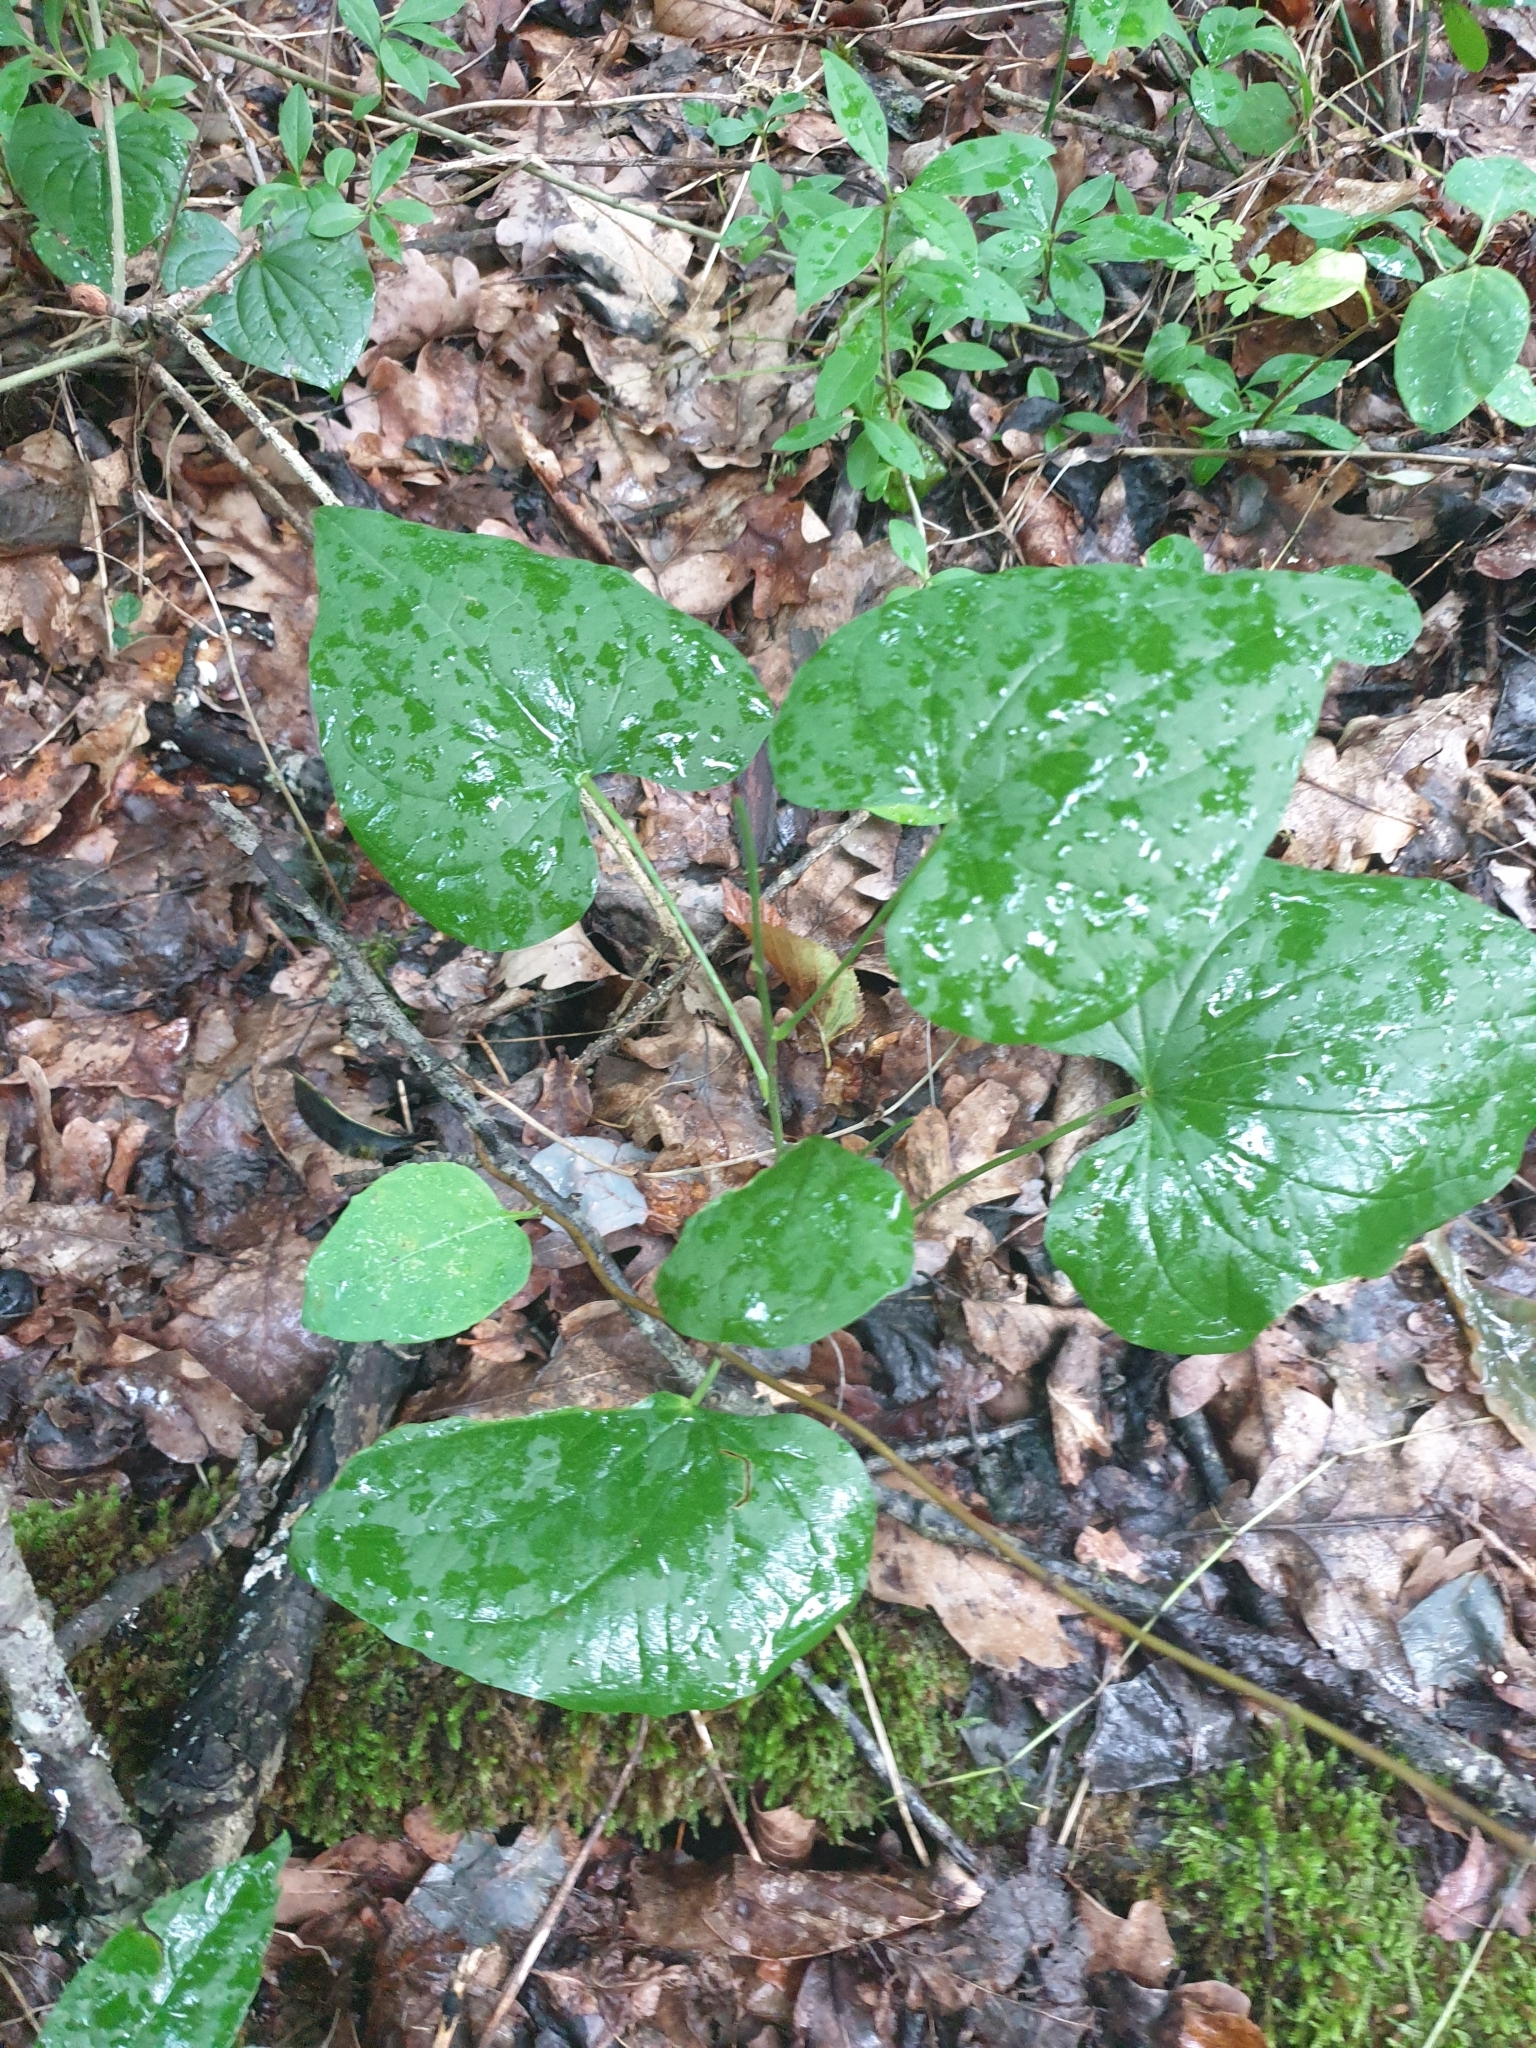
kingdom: Plantae
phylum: Tracheophyta
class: Liliopsida
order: Dioscoreales
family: Dioscoreaceae
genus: Dioscorea
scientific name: Dioscorea communis
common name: Black-bindweed
